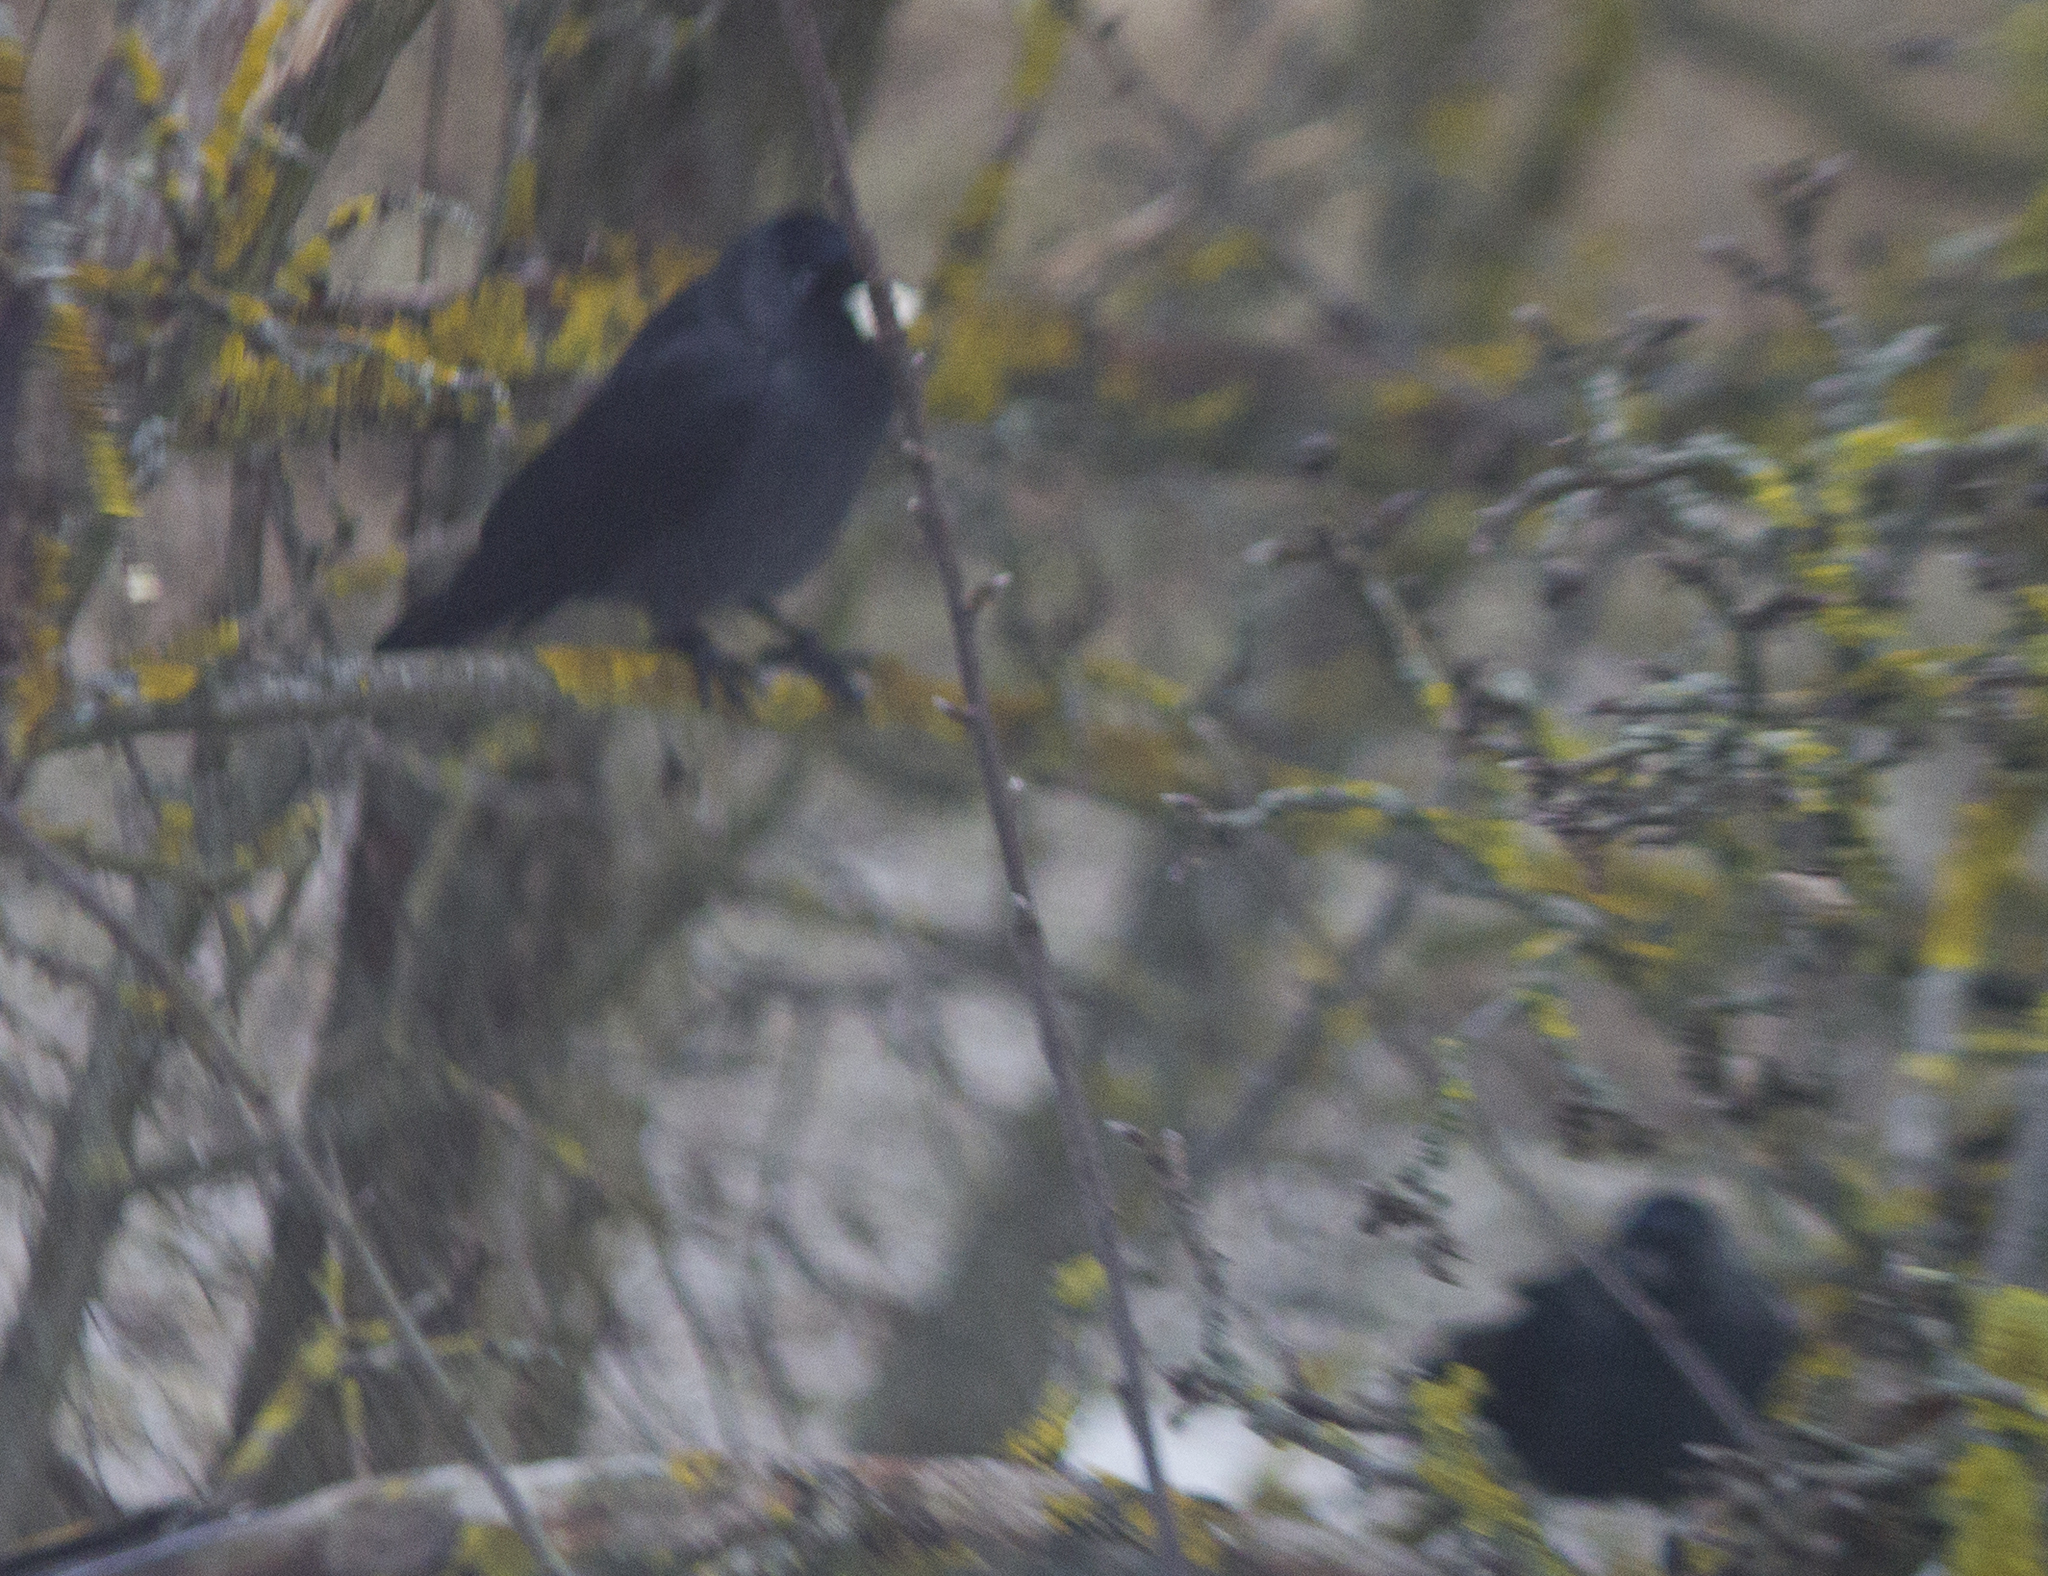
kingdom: Animalia
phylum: Chordata
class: Aves
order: Passeriformes
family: Corvidae
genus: Coloeus
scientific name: Coloeus monedula
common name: Western jackdaw
